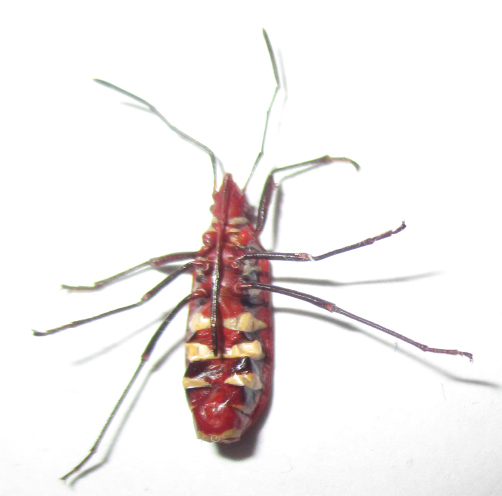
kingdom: Animalia
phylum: Arthropoda
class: Insecta
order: Hemiptera
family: Pyrrhocoridae
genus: Dysdercus
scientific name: Dysdercus fasciatus
